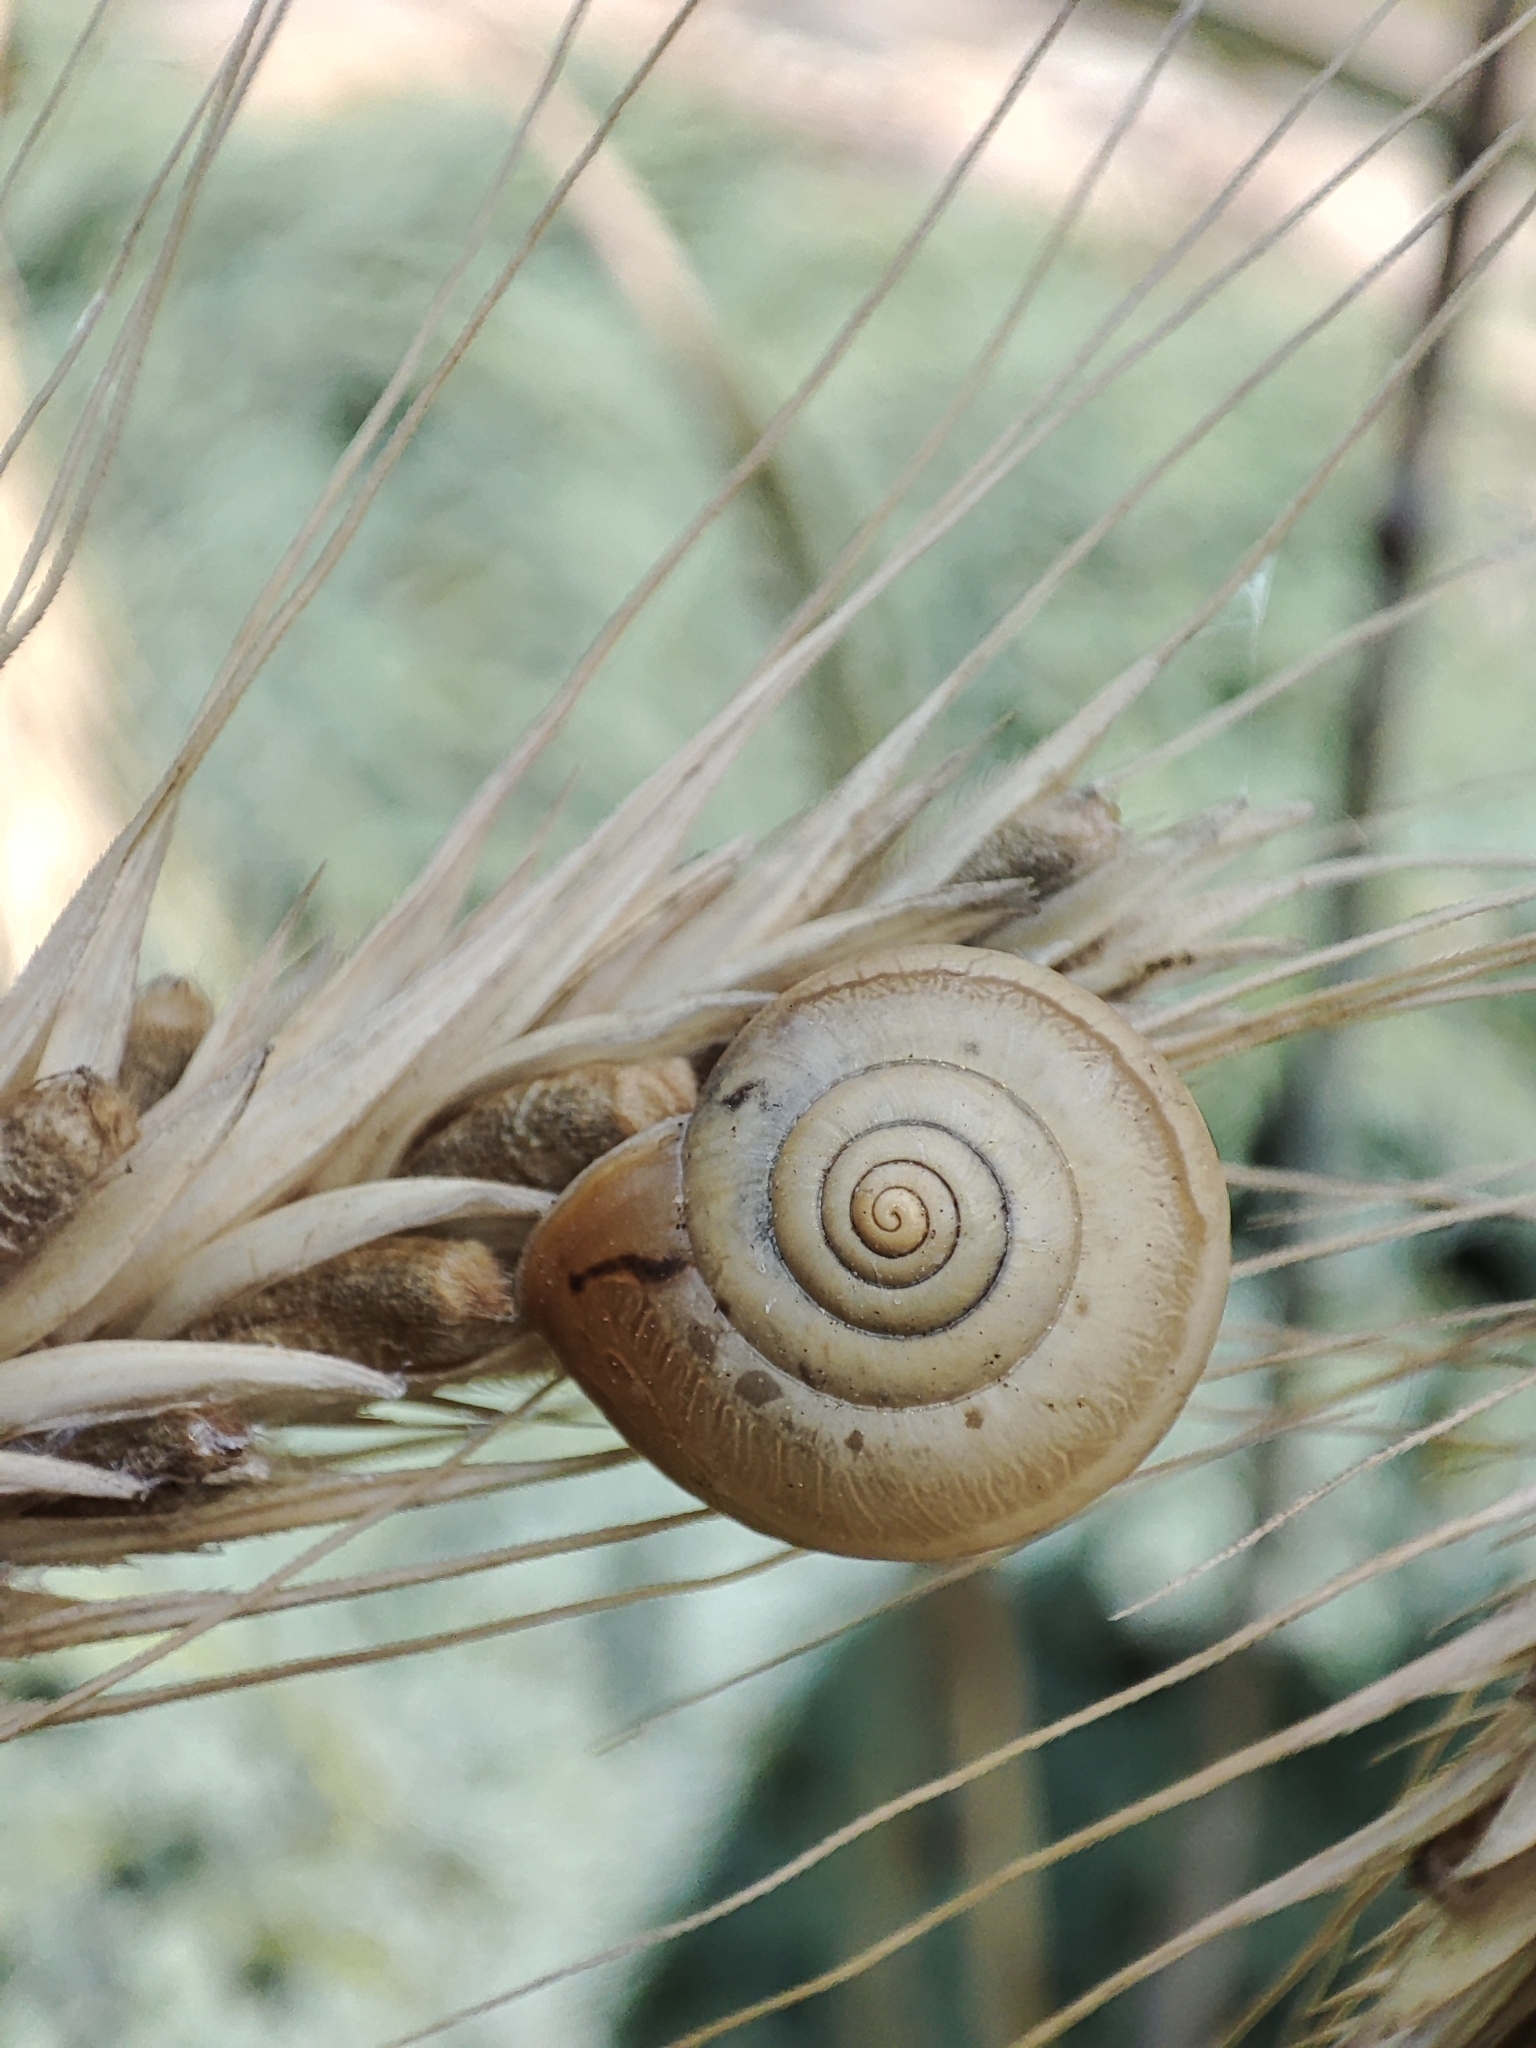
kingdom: Animalia
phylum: Mollusca
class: Gastropoda
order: Stylommatophora
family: Hygromiidae
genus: Monacha
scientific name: Monacha cartusiana
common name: Carthusian snail
